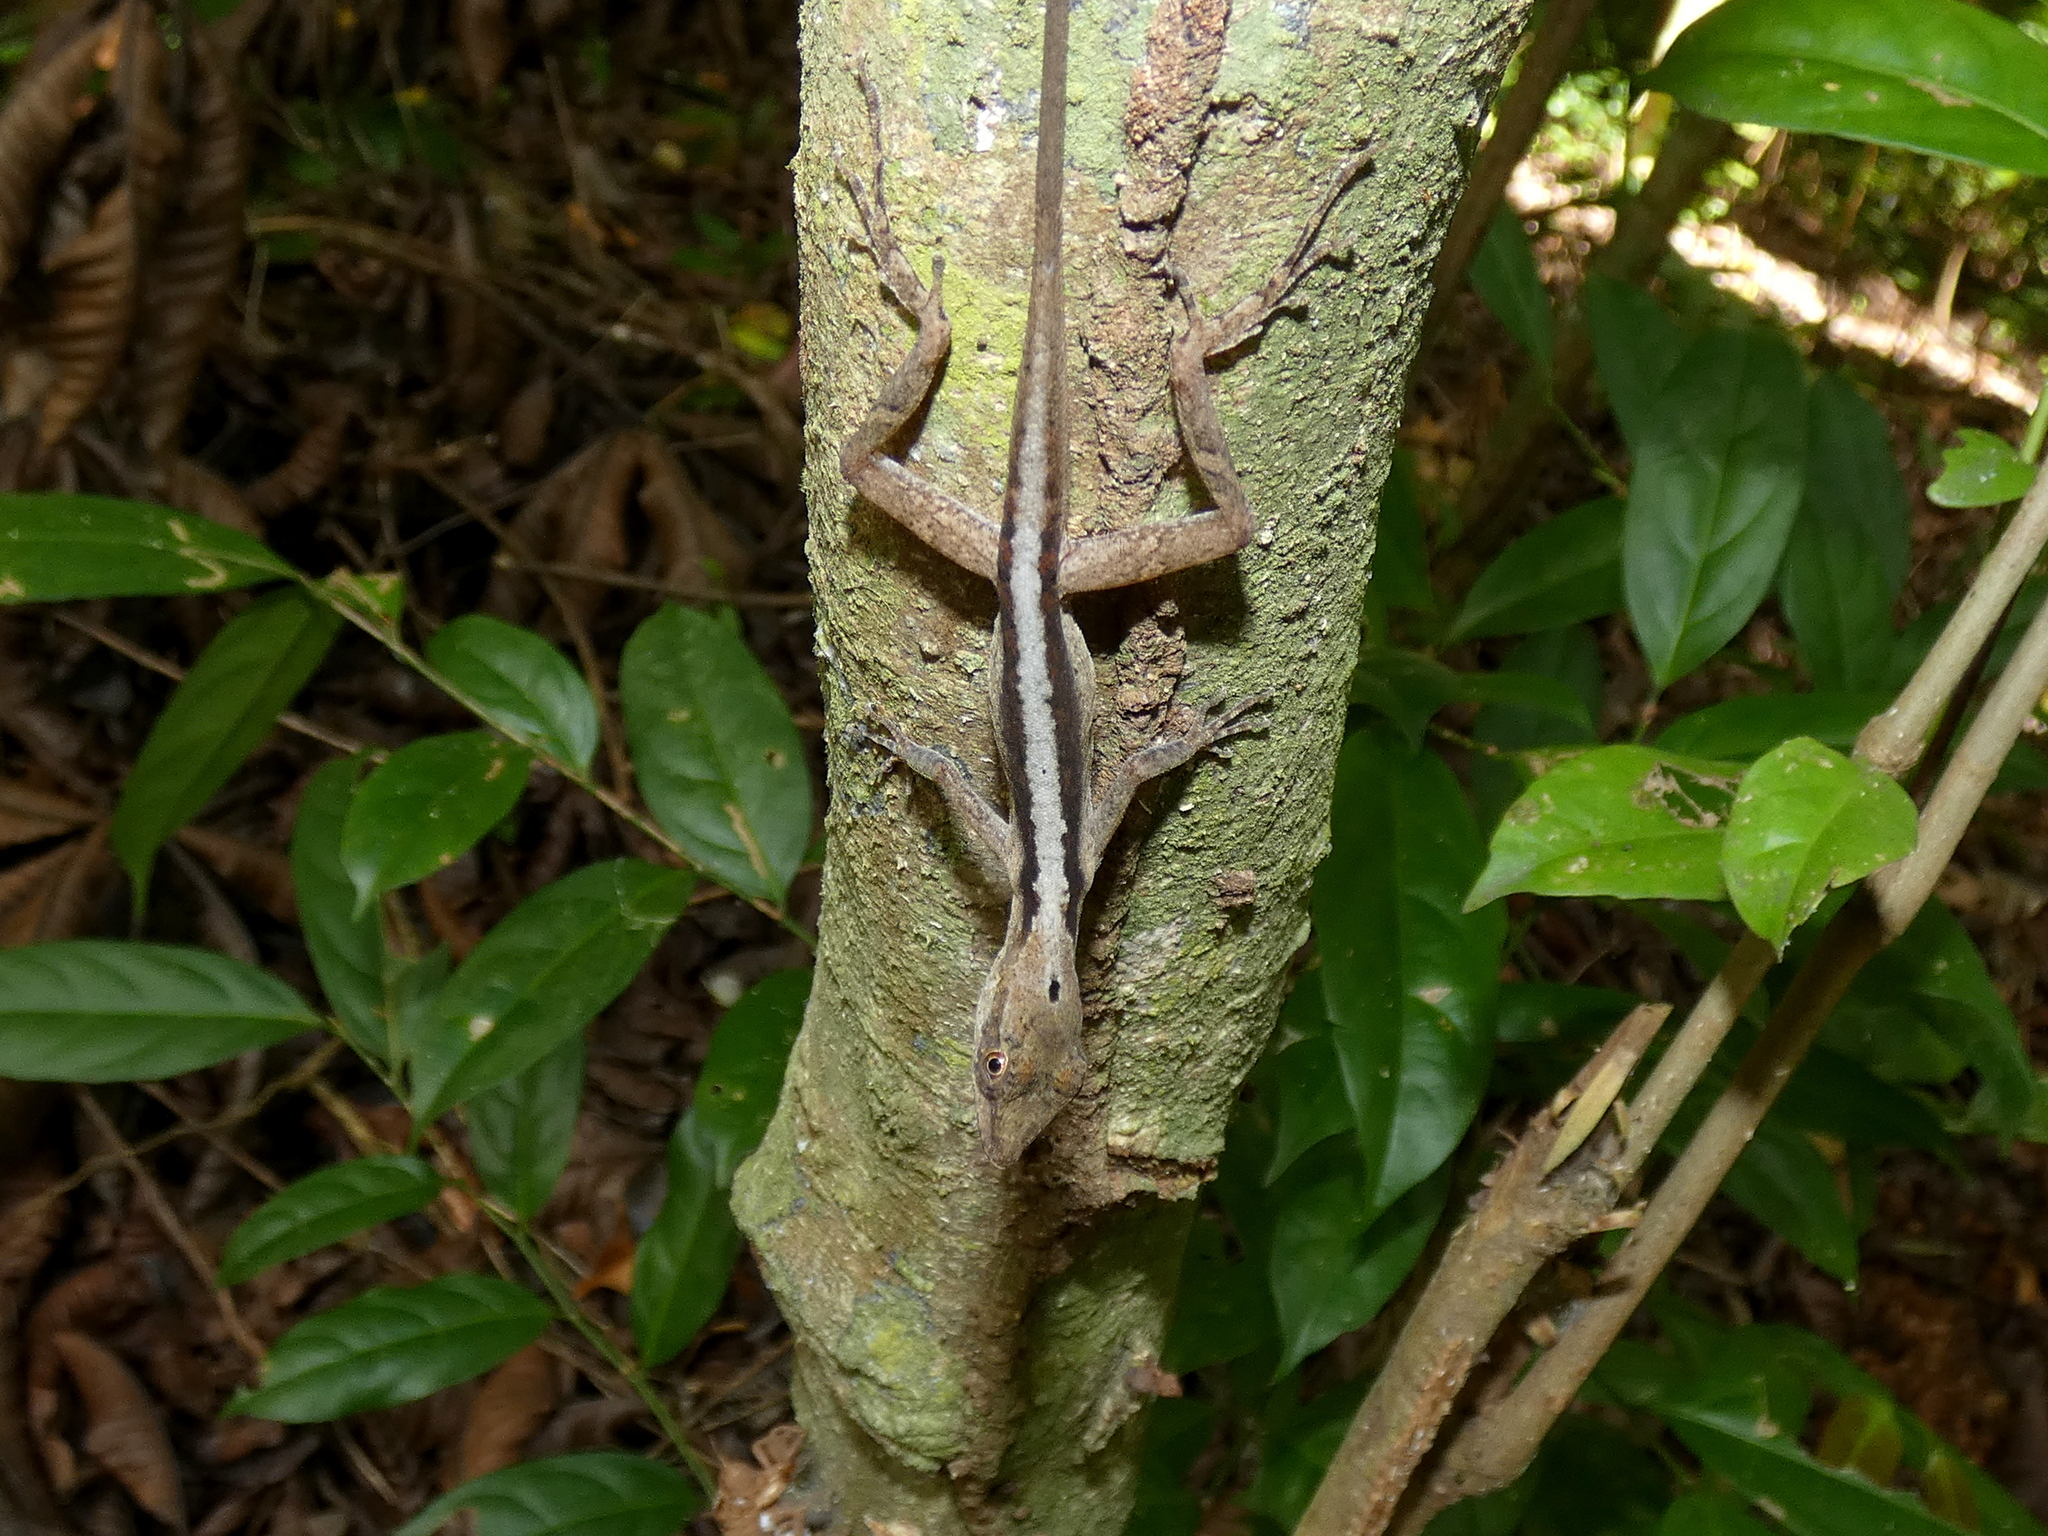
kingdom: Animalia
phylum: Chordata
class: Squamata
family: Dactyloidae
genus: Anolis
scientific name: Anolis gaigei
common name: Gaige’s anole
